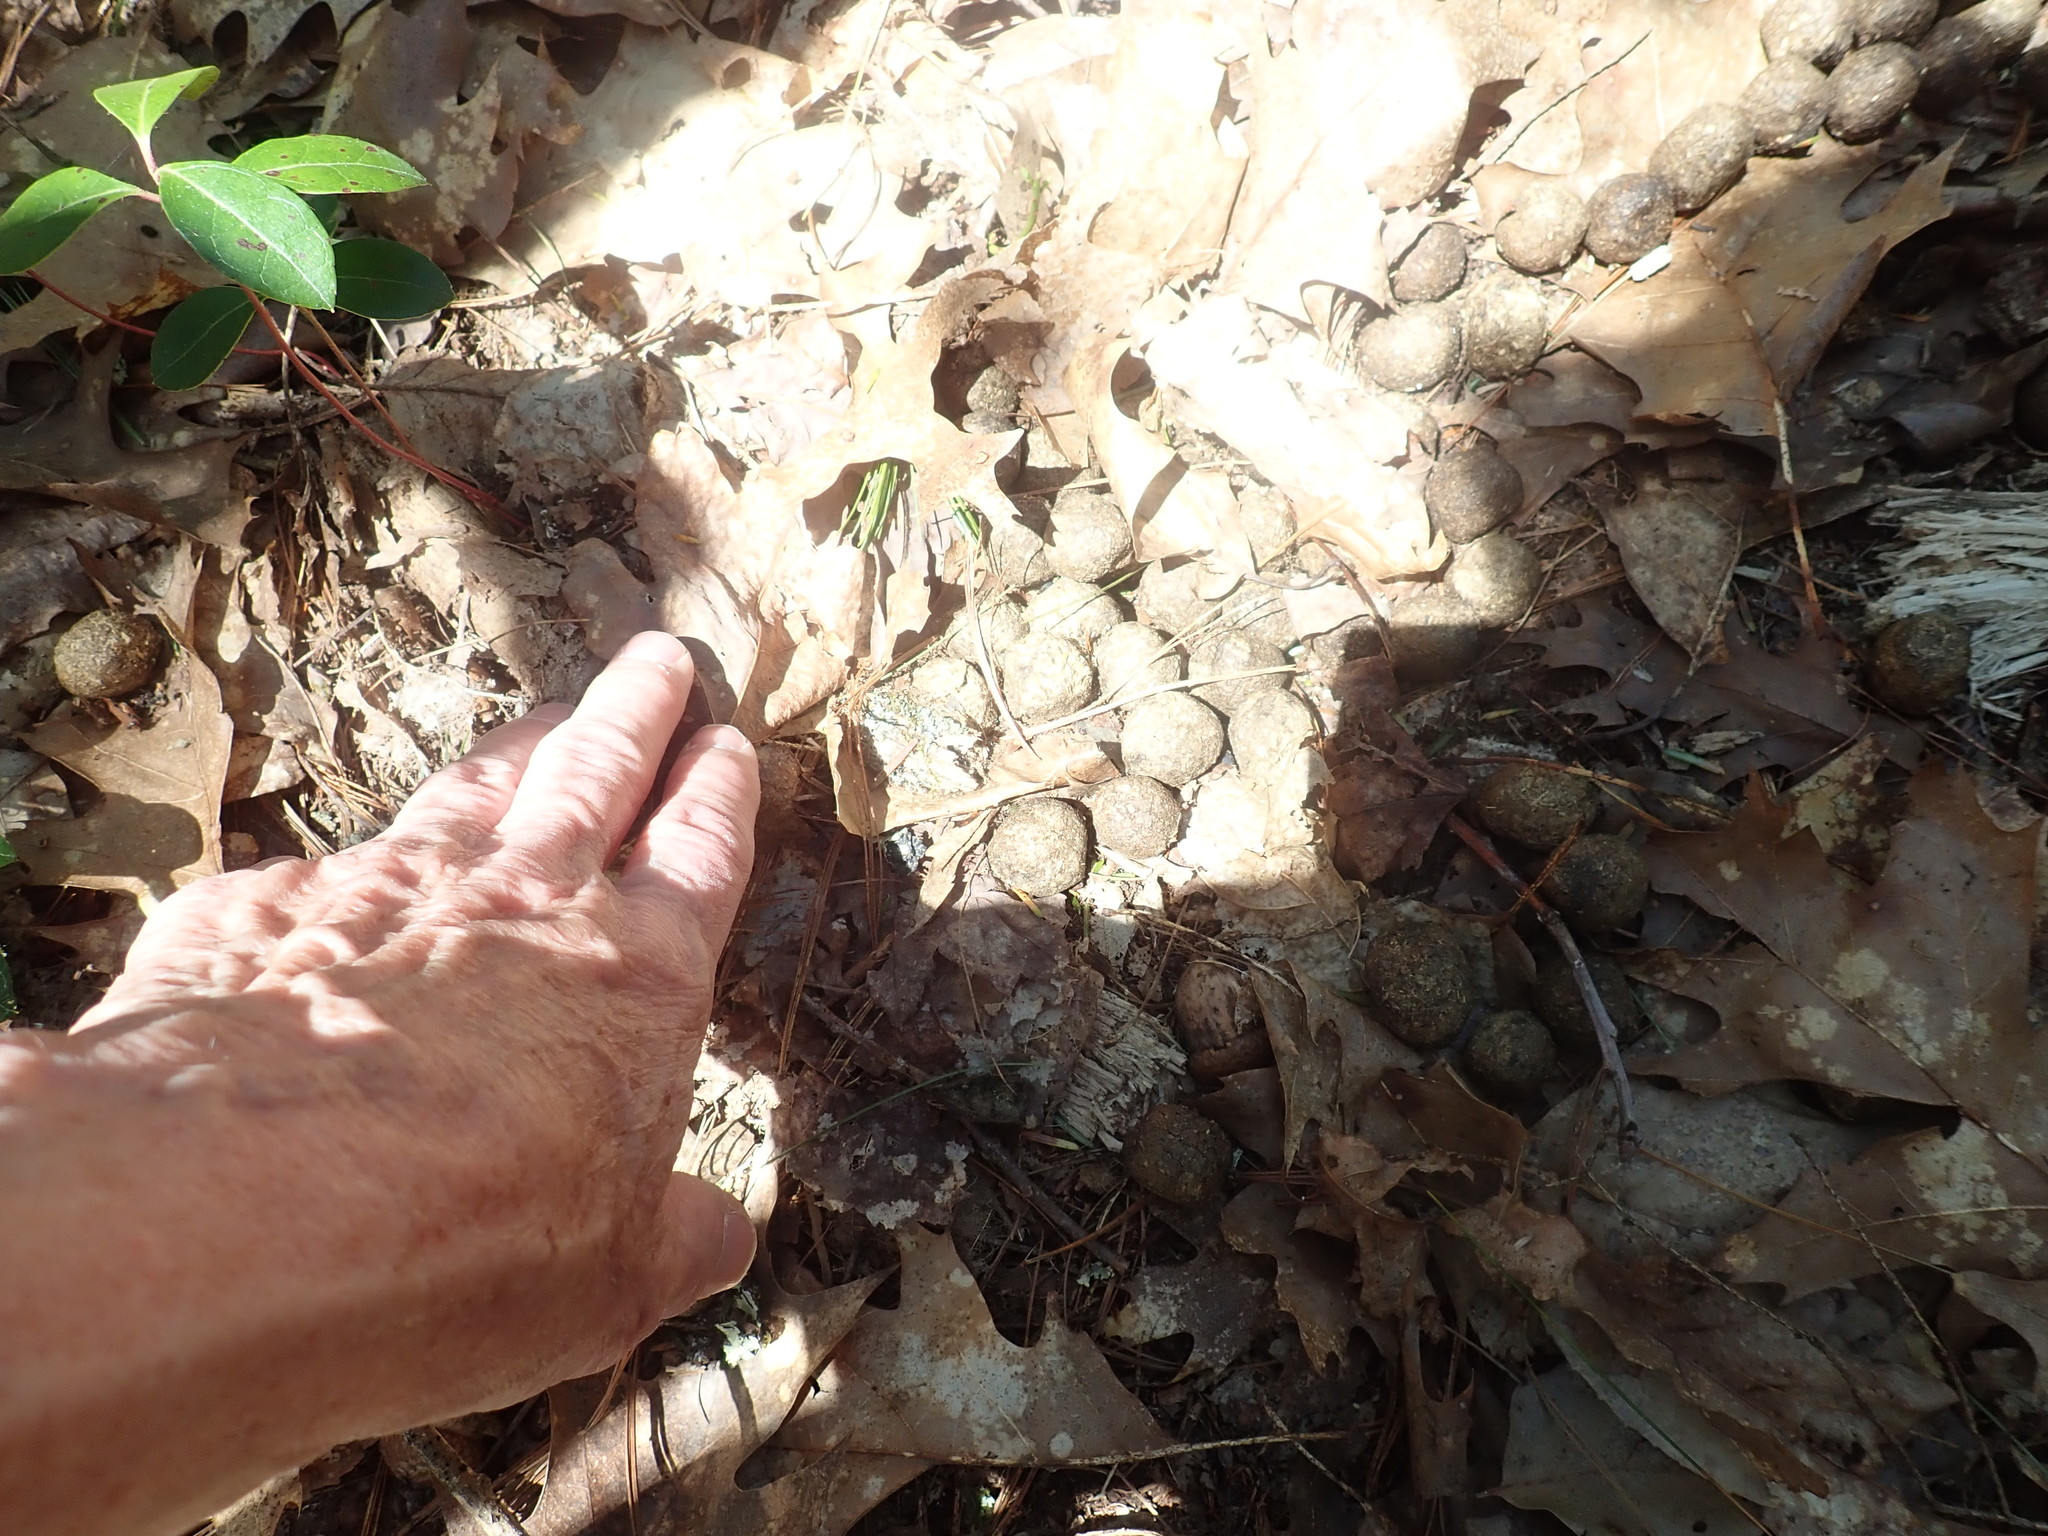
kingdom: Animalia
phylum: Chordata
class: Mammalia
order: Artiodactyla
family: Cervidae
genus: Alces
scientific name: Alces alces
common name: Moose
